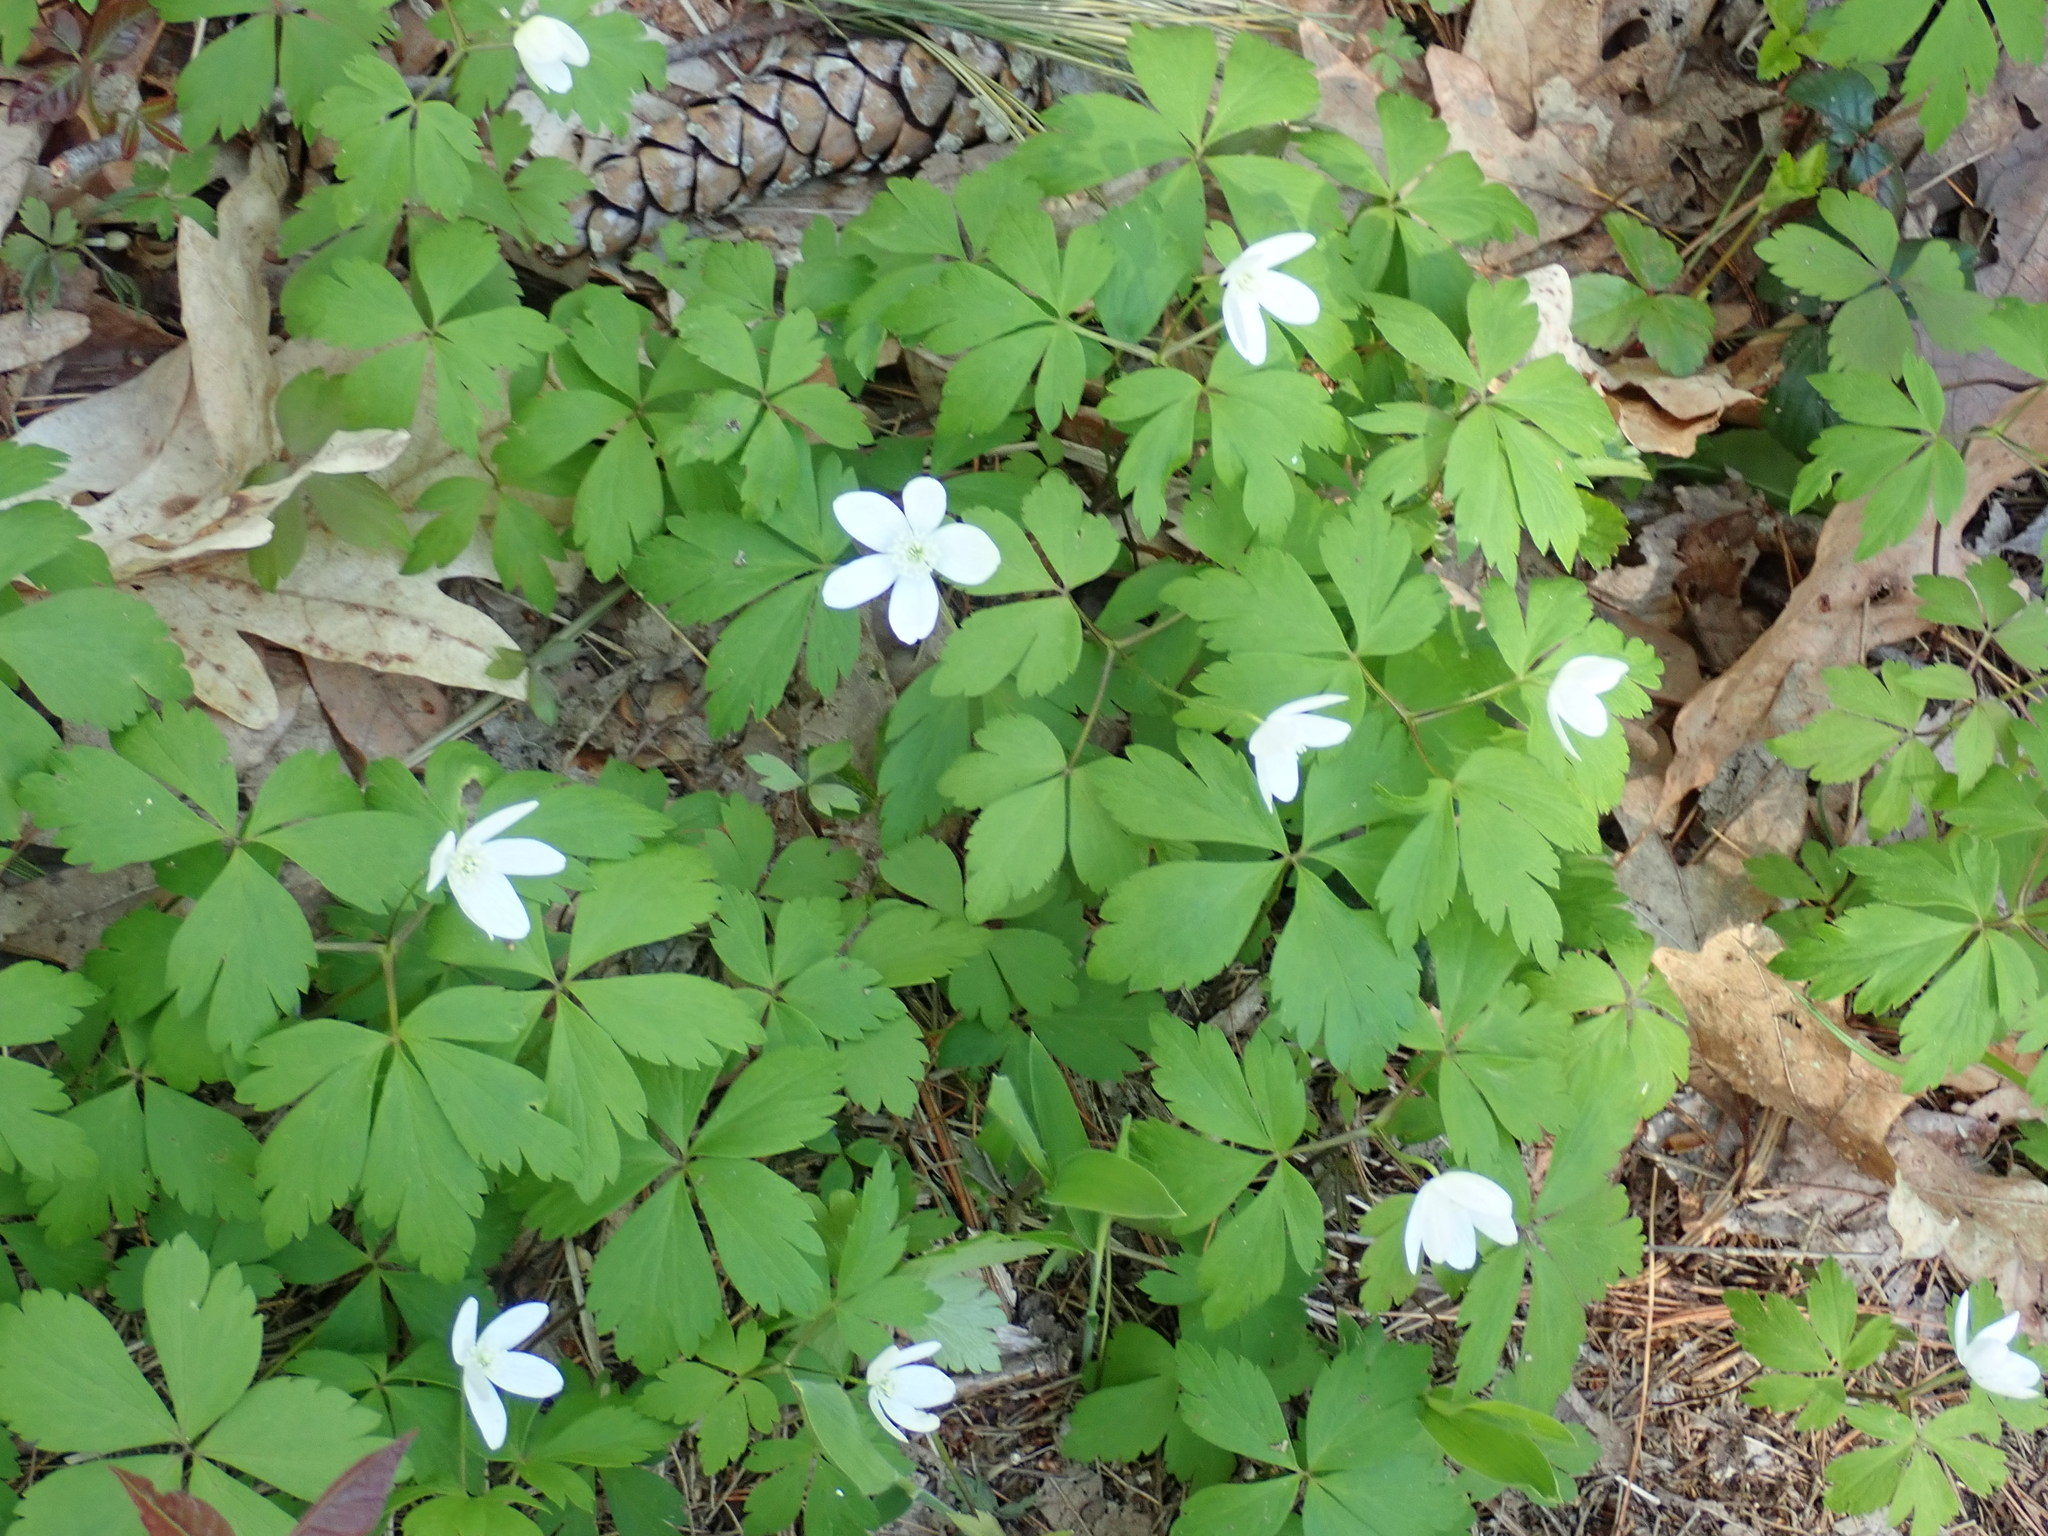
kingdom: Plantae
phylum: Tracheophyta
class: Magnoliopsida
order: Ranunculales
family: Ranunculaceae
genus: Anemone
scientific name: Anemone quinquefolia
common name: Wood anemone
